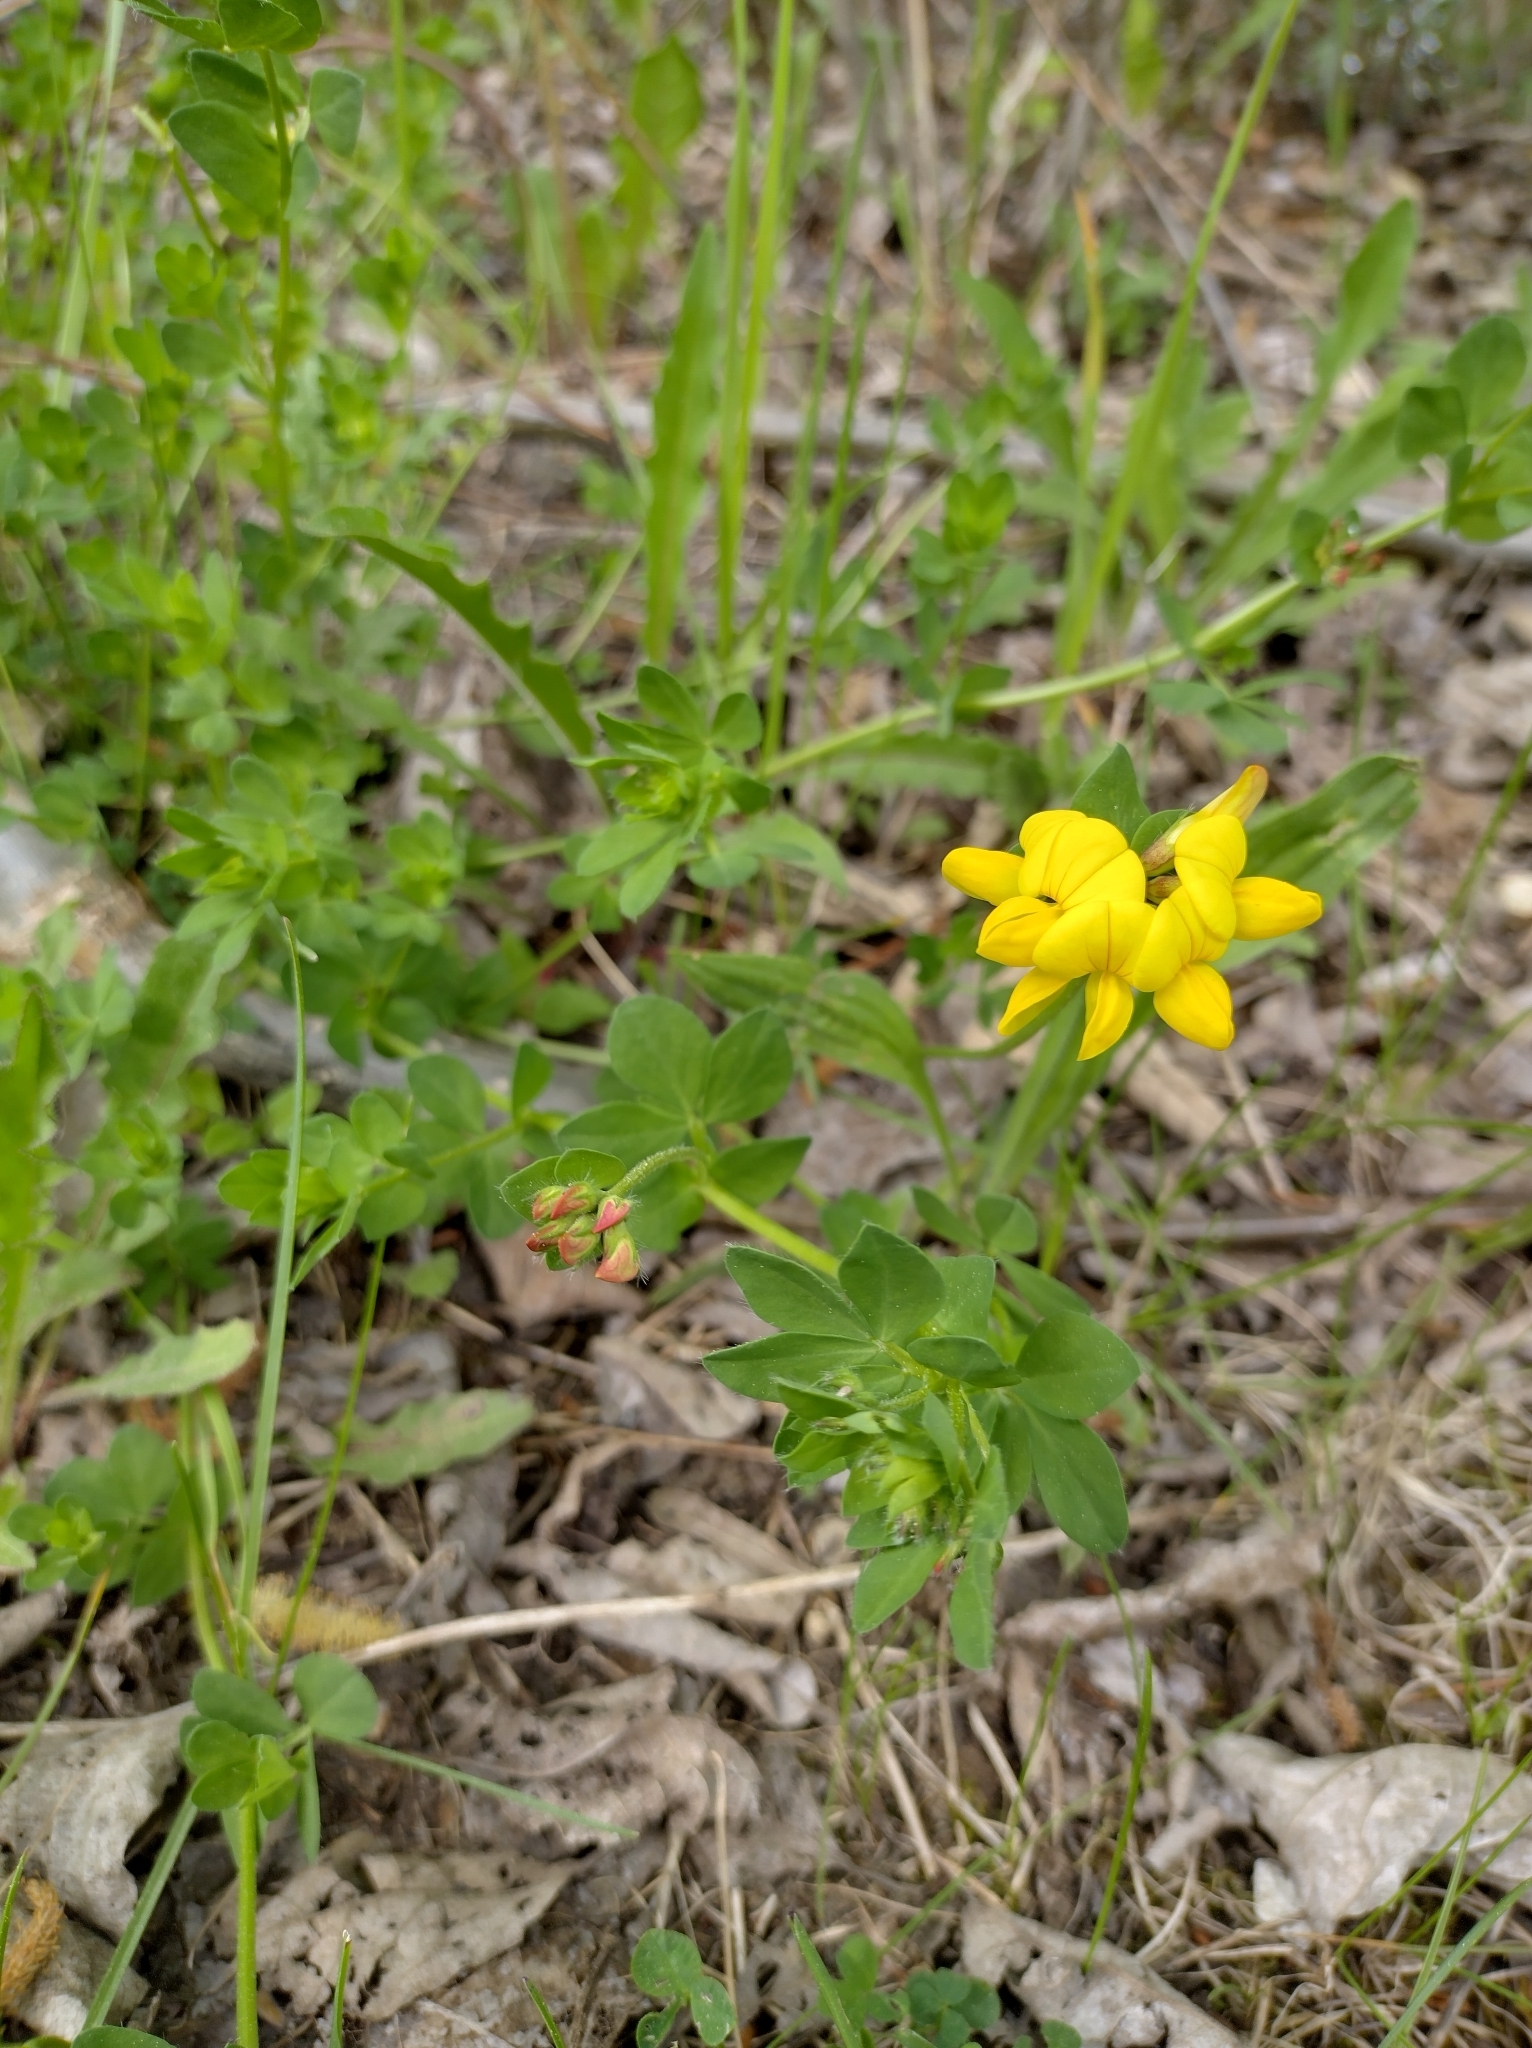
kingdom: Plantae
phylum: Tracheophyta
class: Magnoliopsida
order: Fabales
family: Fabaceae
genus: Lotus
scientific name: Lotus corniculatus
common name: Common bird's-foot-trefoil
